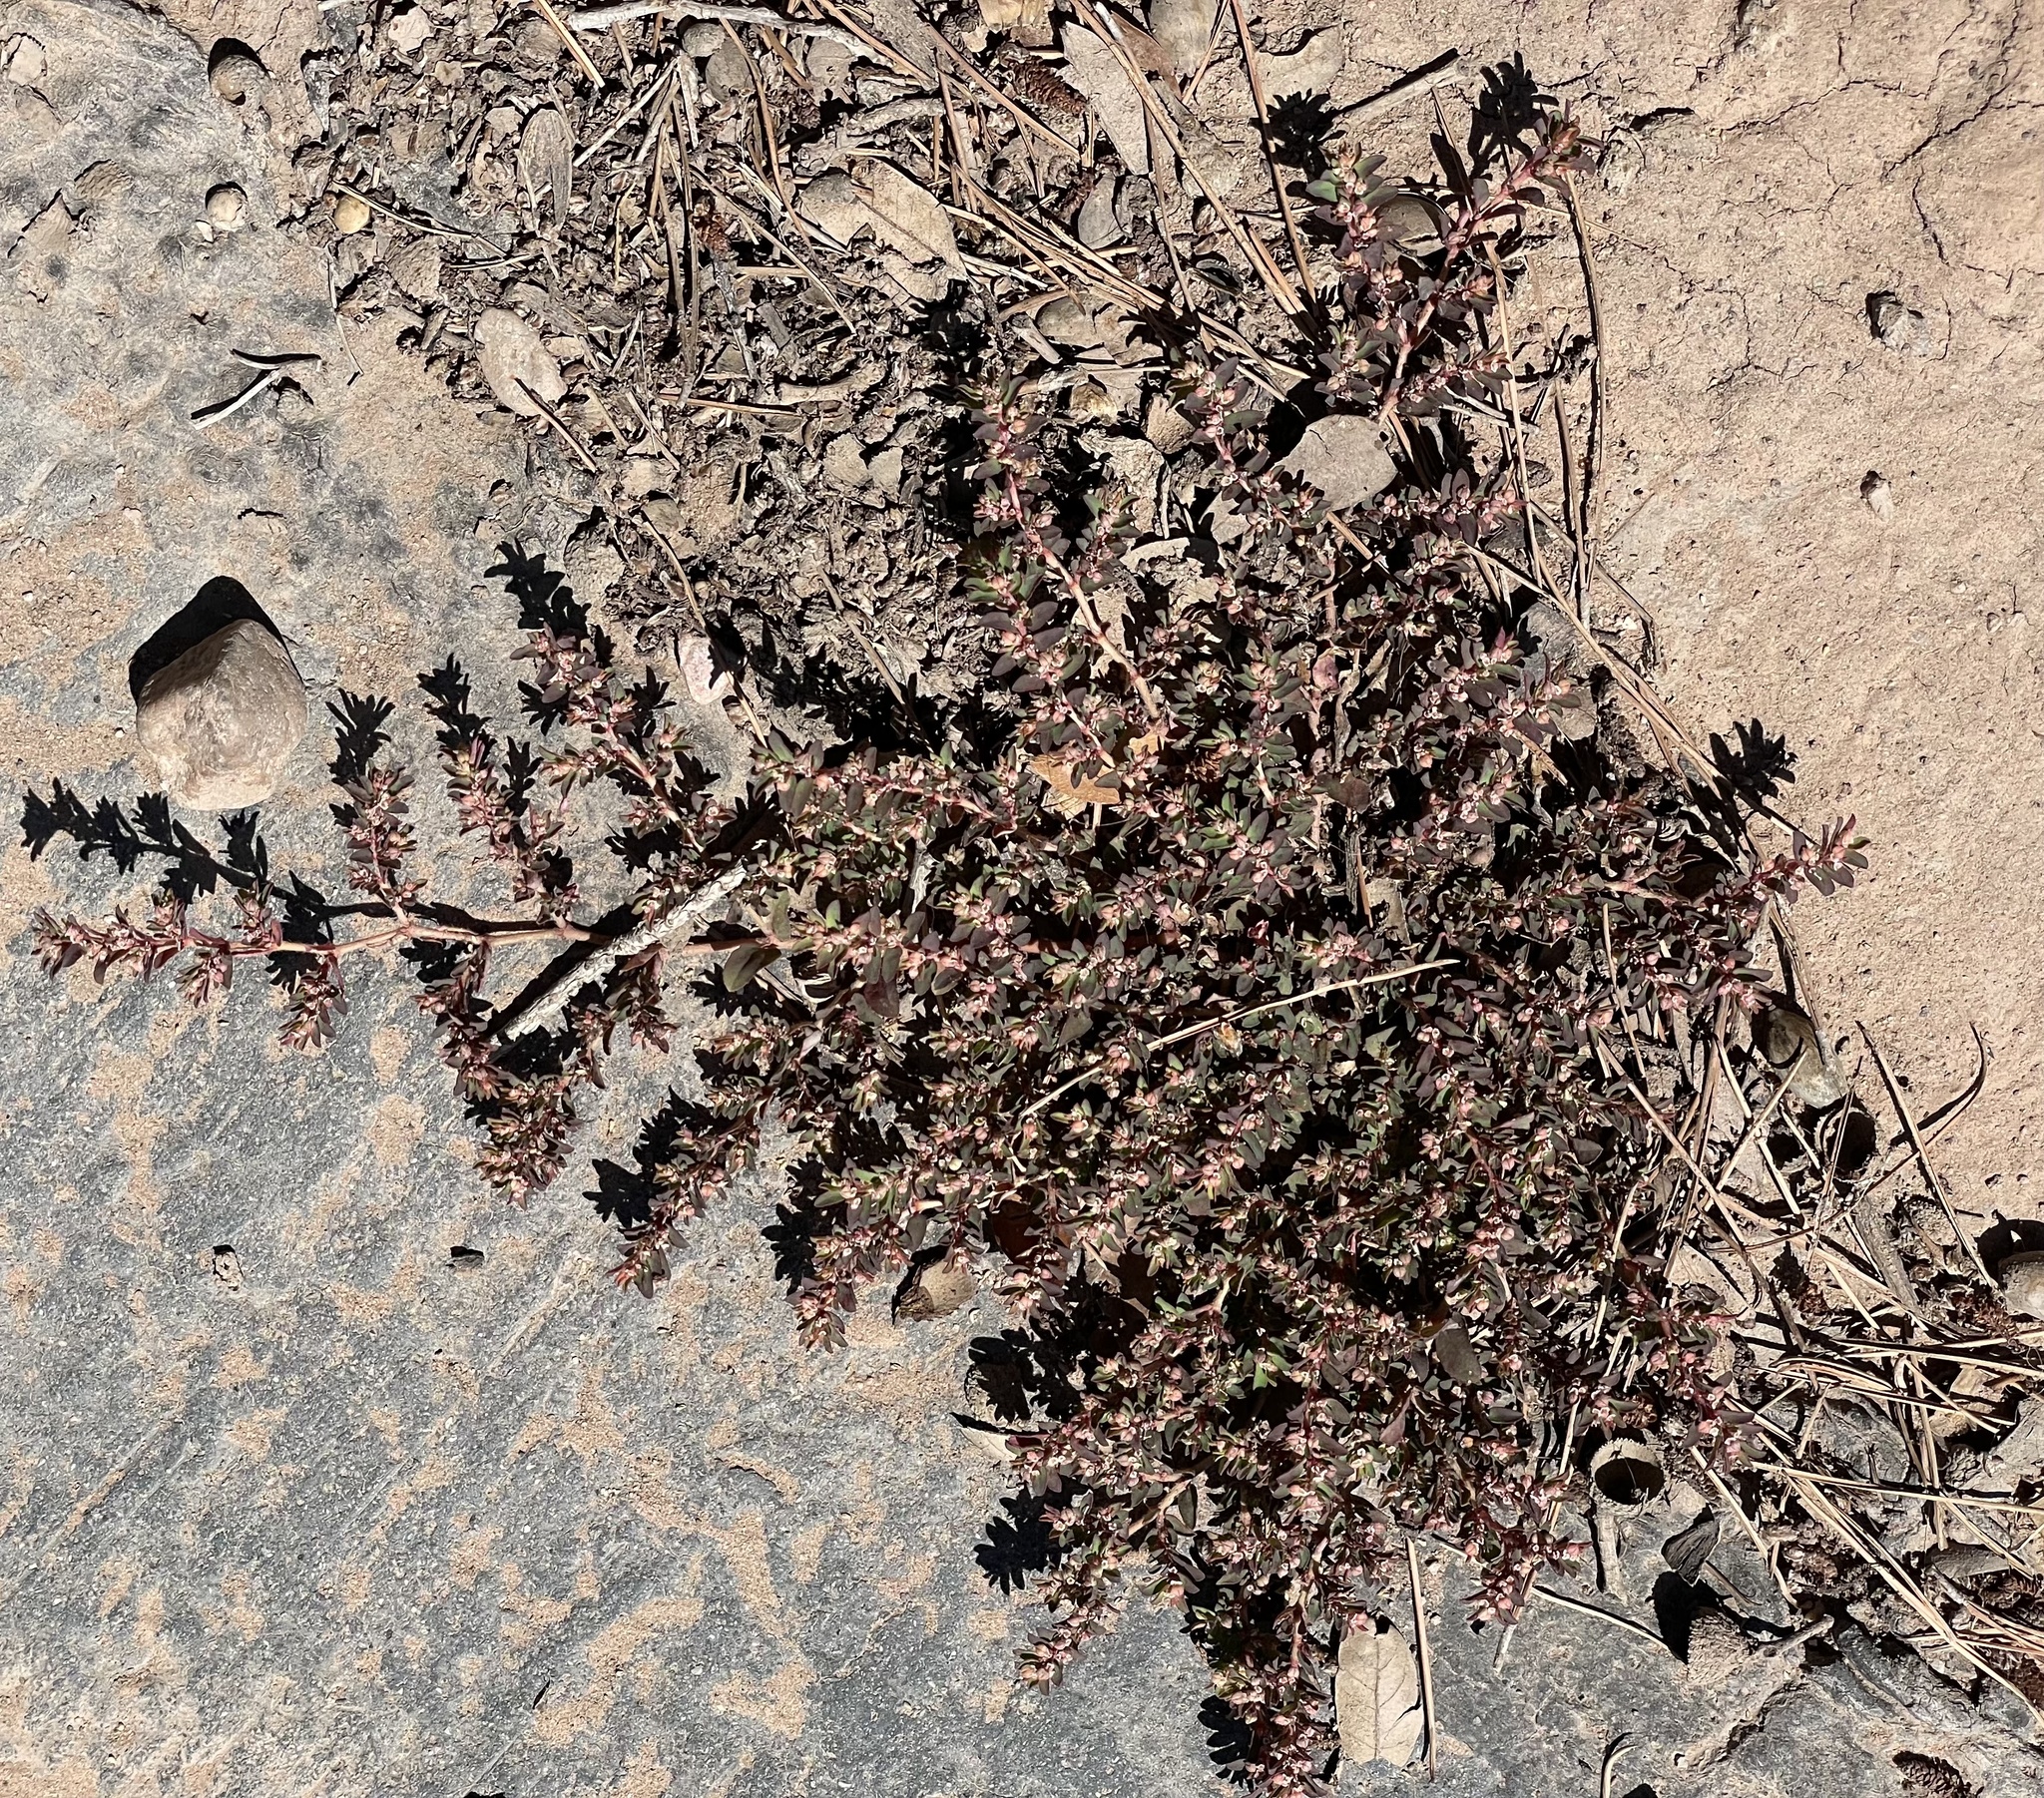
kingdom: Plantae
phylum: Tracheophyta
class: Magnoliopsida
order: Malpighiales
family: Euphorbiaceae
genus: Euphorbia
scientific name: Euphorbia maculata
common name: Spotted spurge
